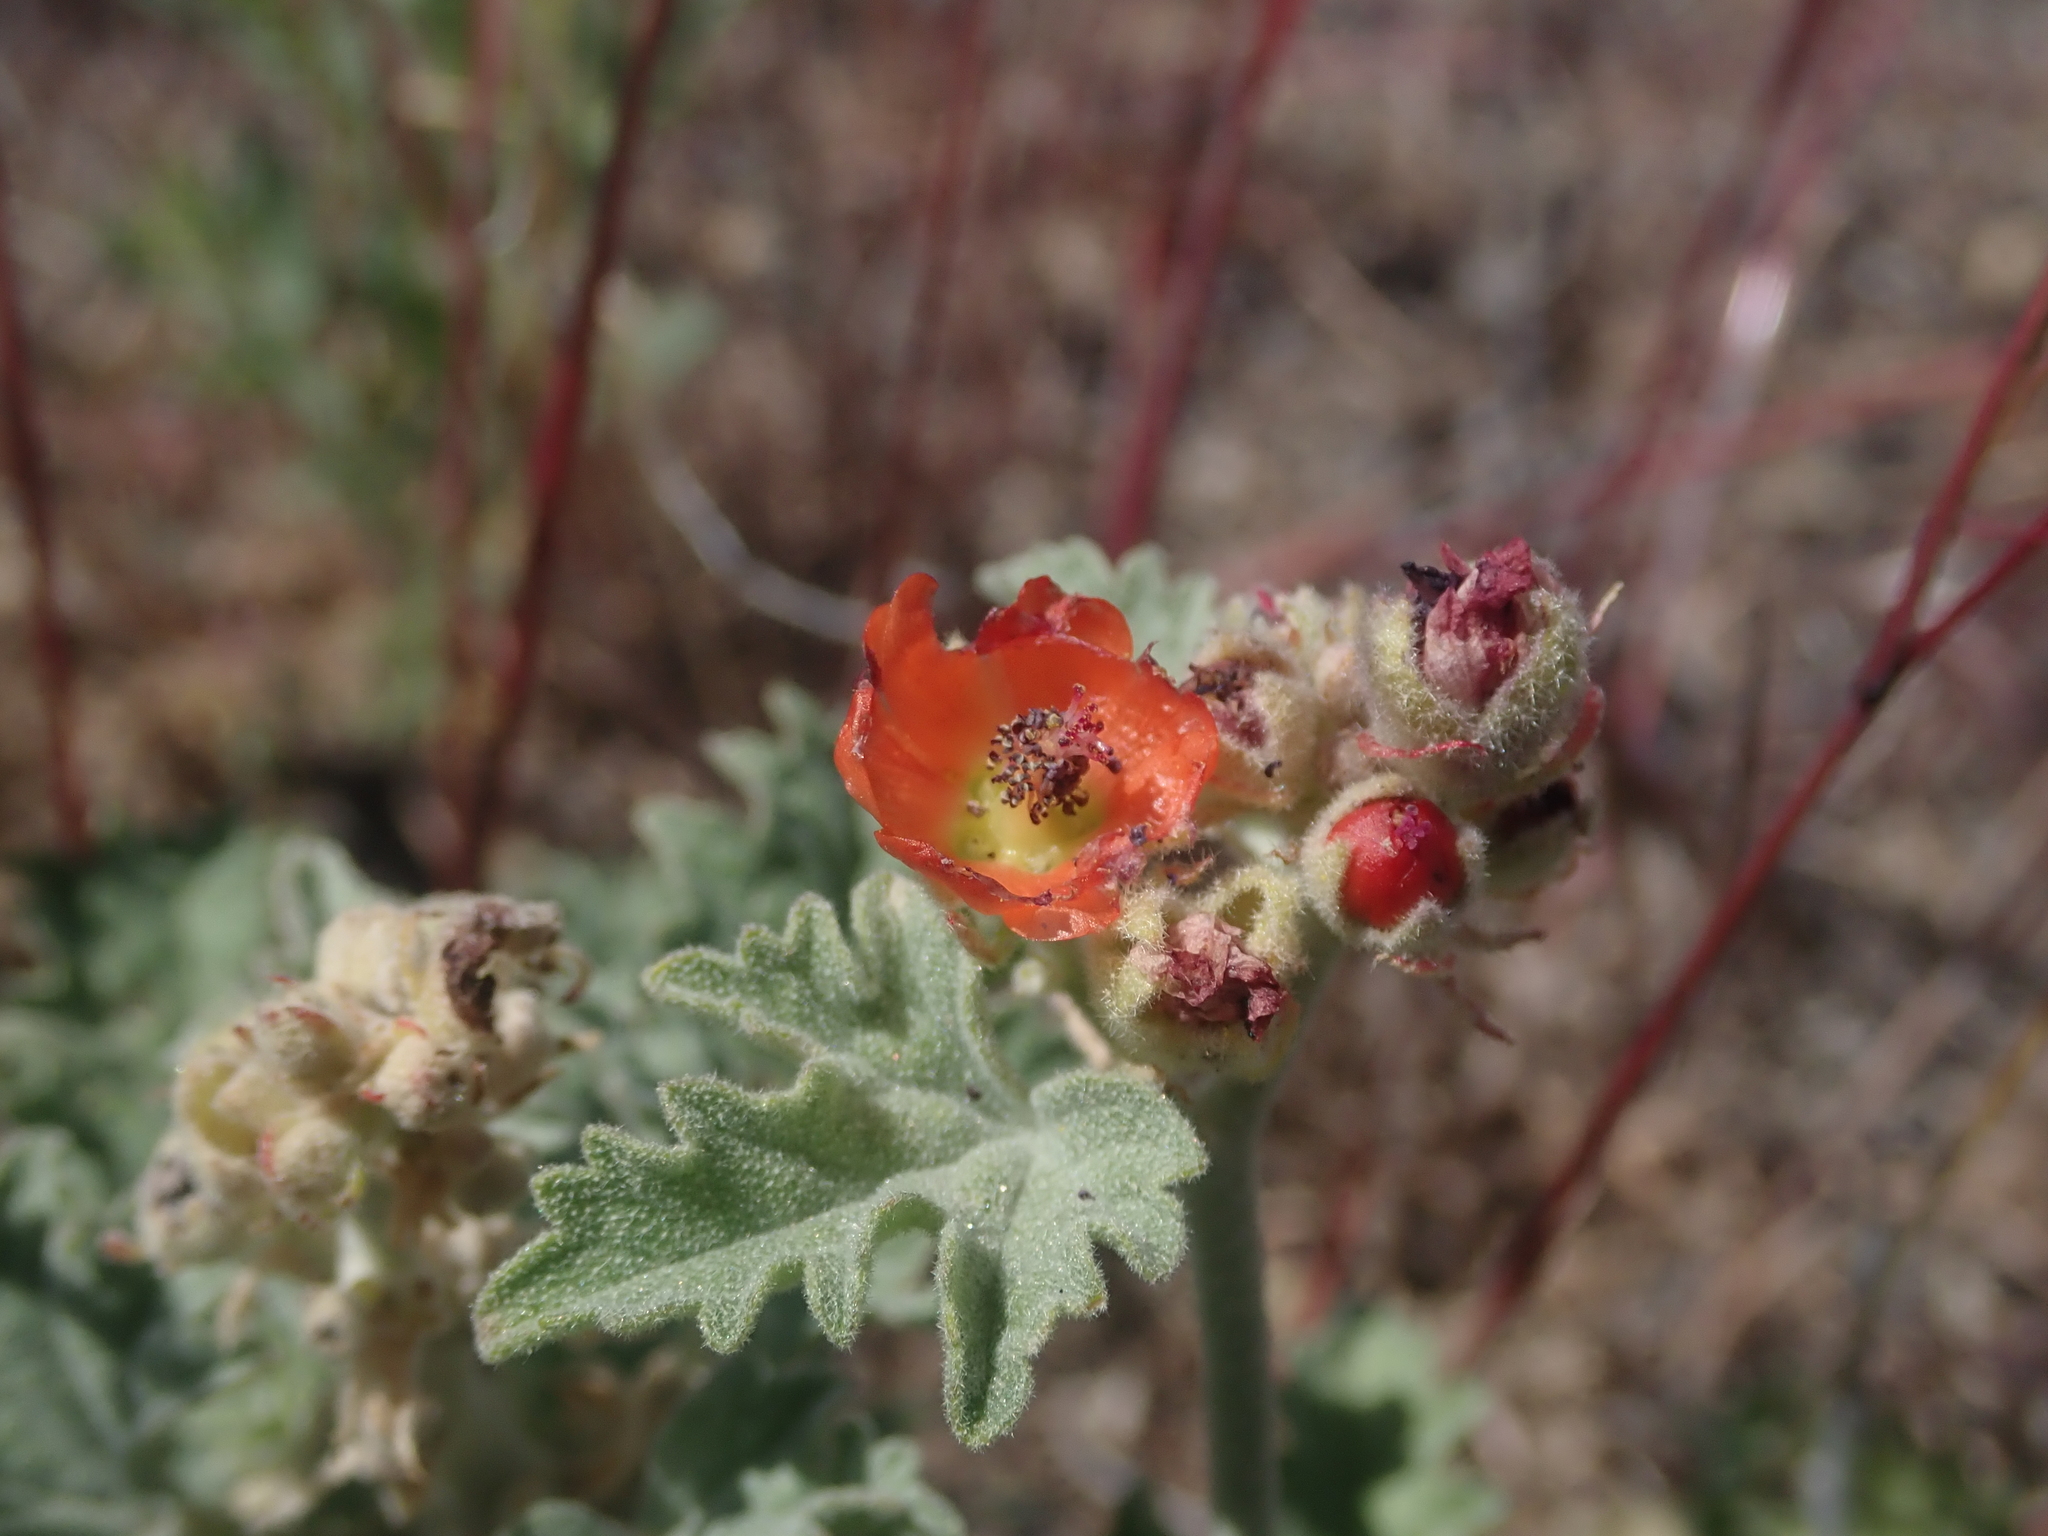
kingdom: Plantae
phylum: Tracheophyta
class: Magnoliopsida
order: Malvales
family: Malvaceae
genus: Sphaeralcea
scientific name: Sphaeralcea munroana
